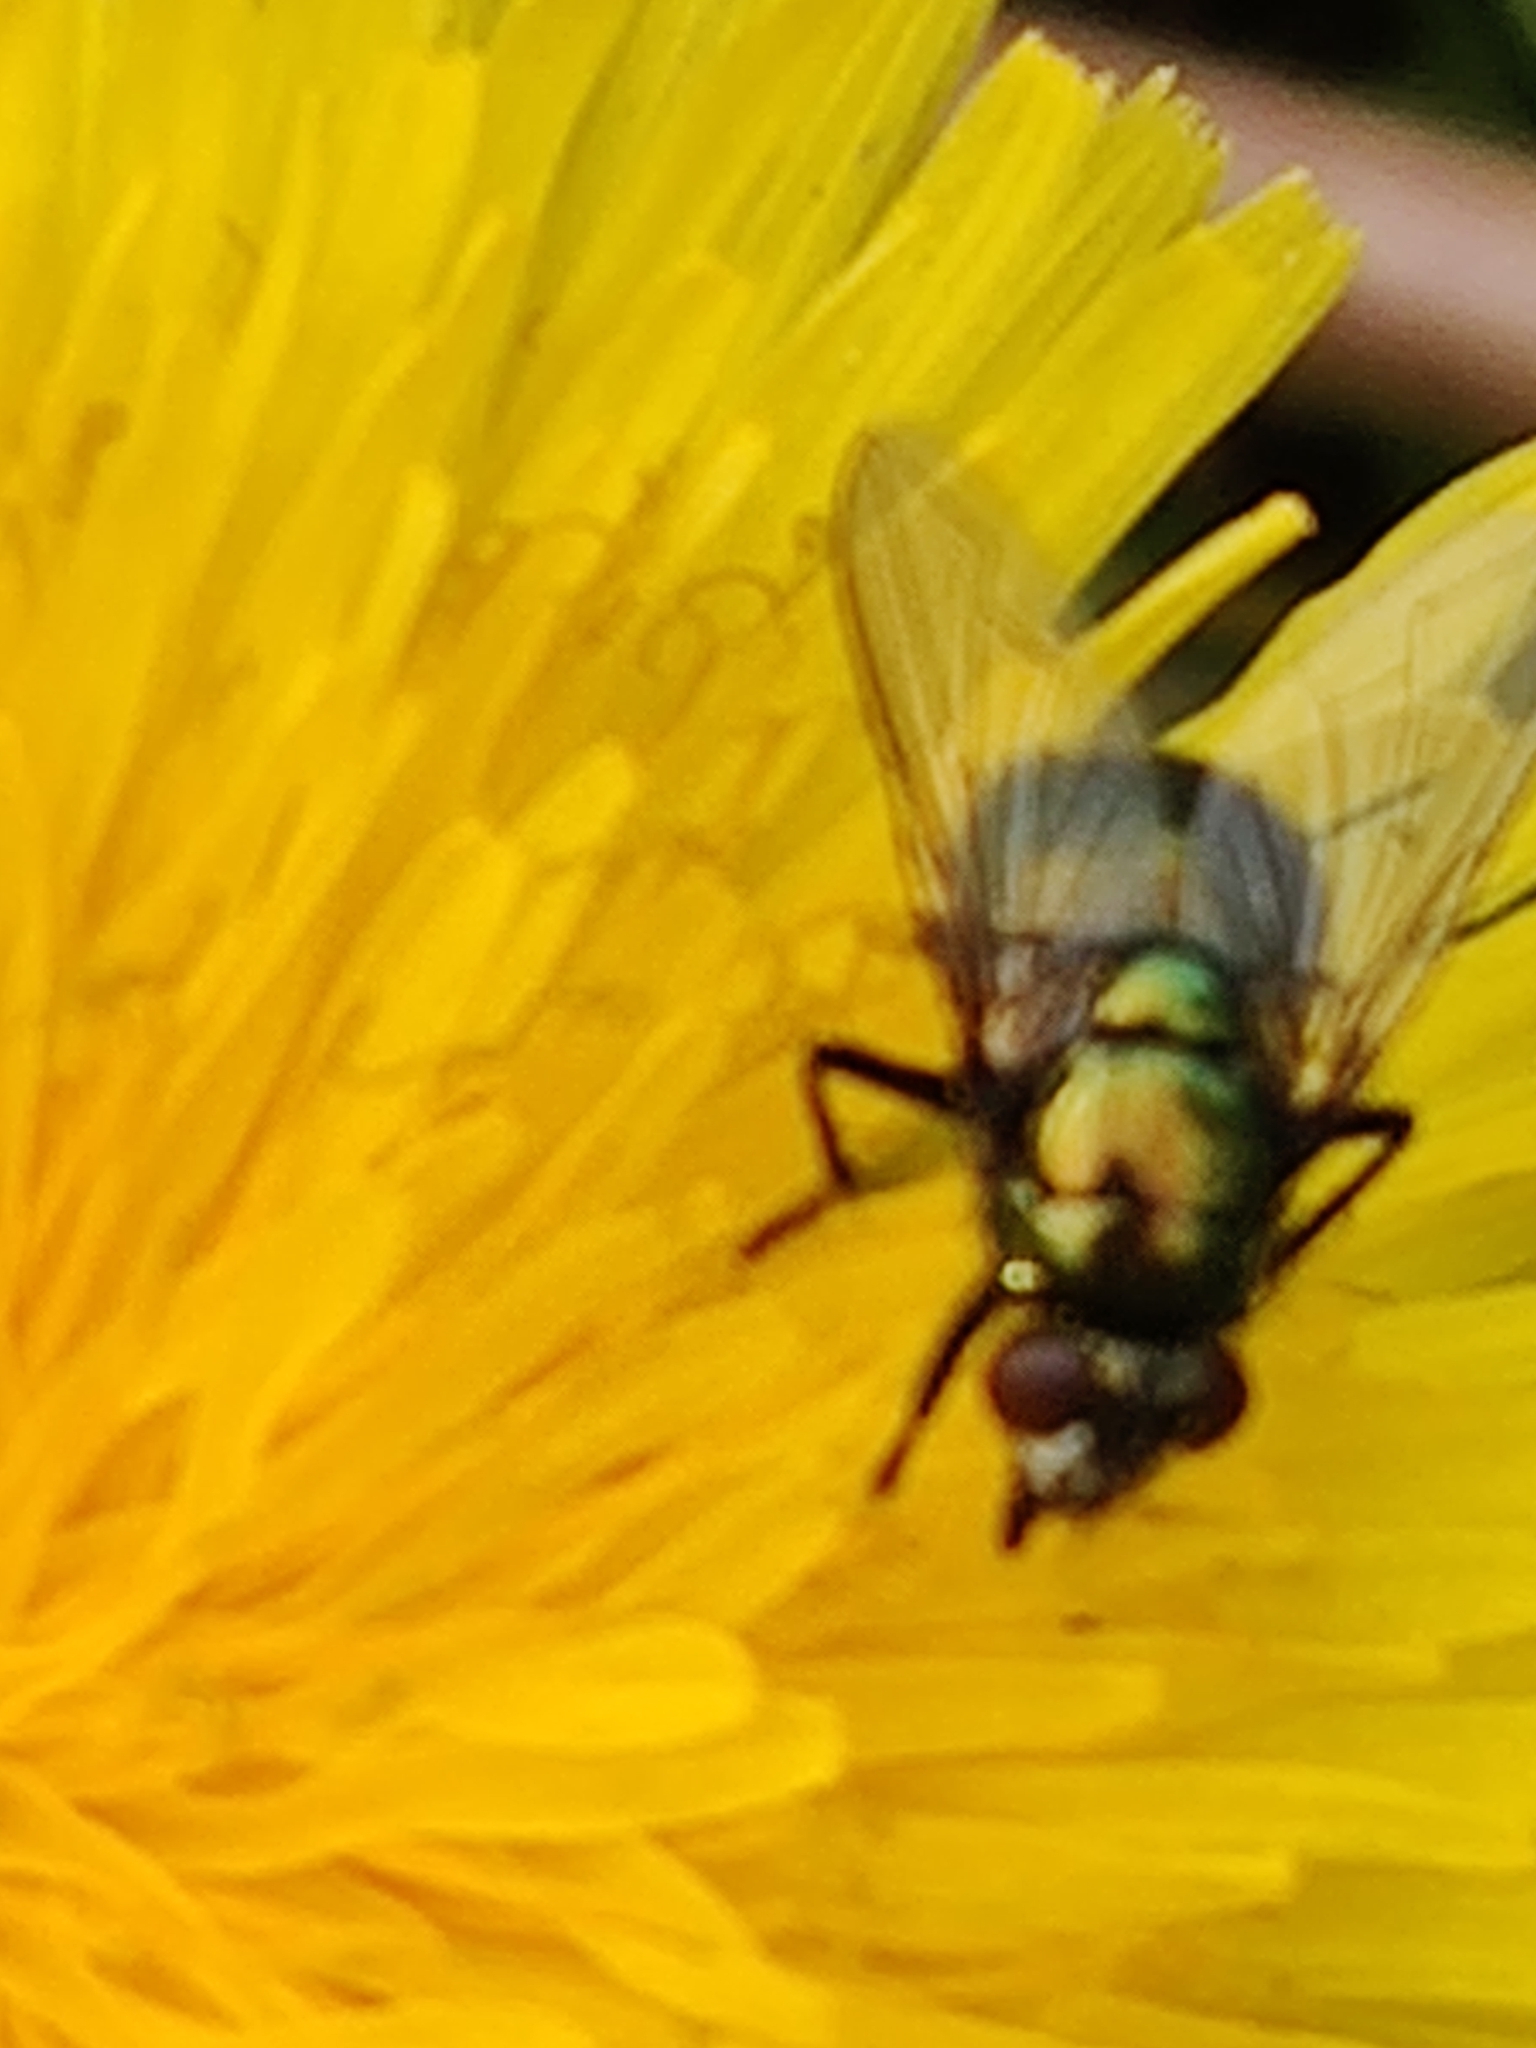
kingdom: Animalia
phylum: Arthropoda
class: Insecta
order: Diptera
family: Muscidae
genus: Neomyia
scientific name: Neomyia
